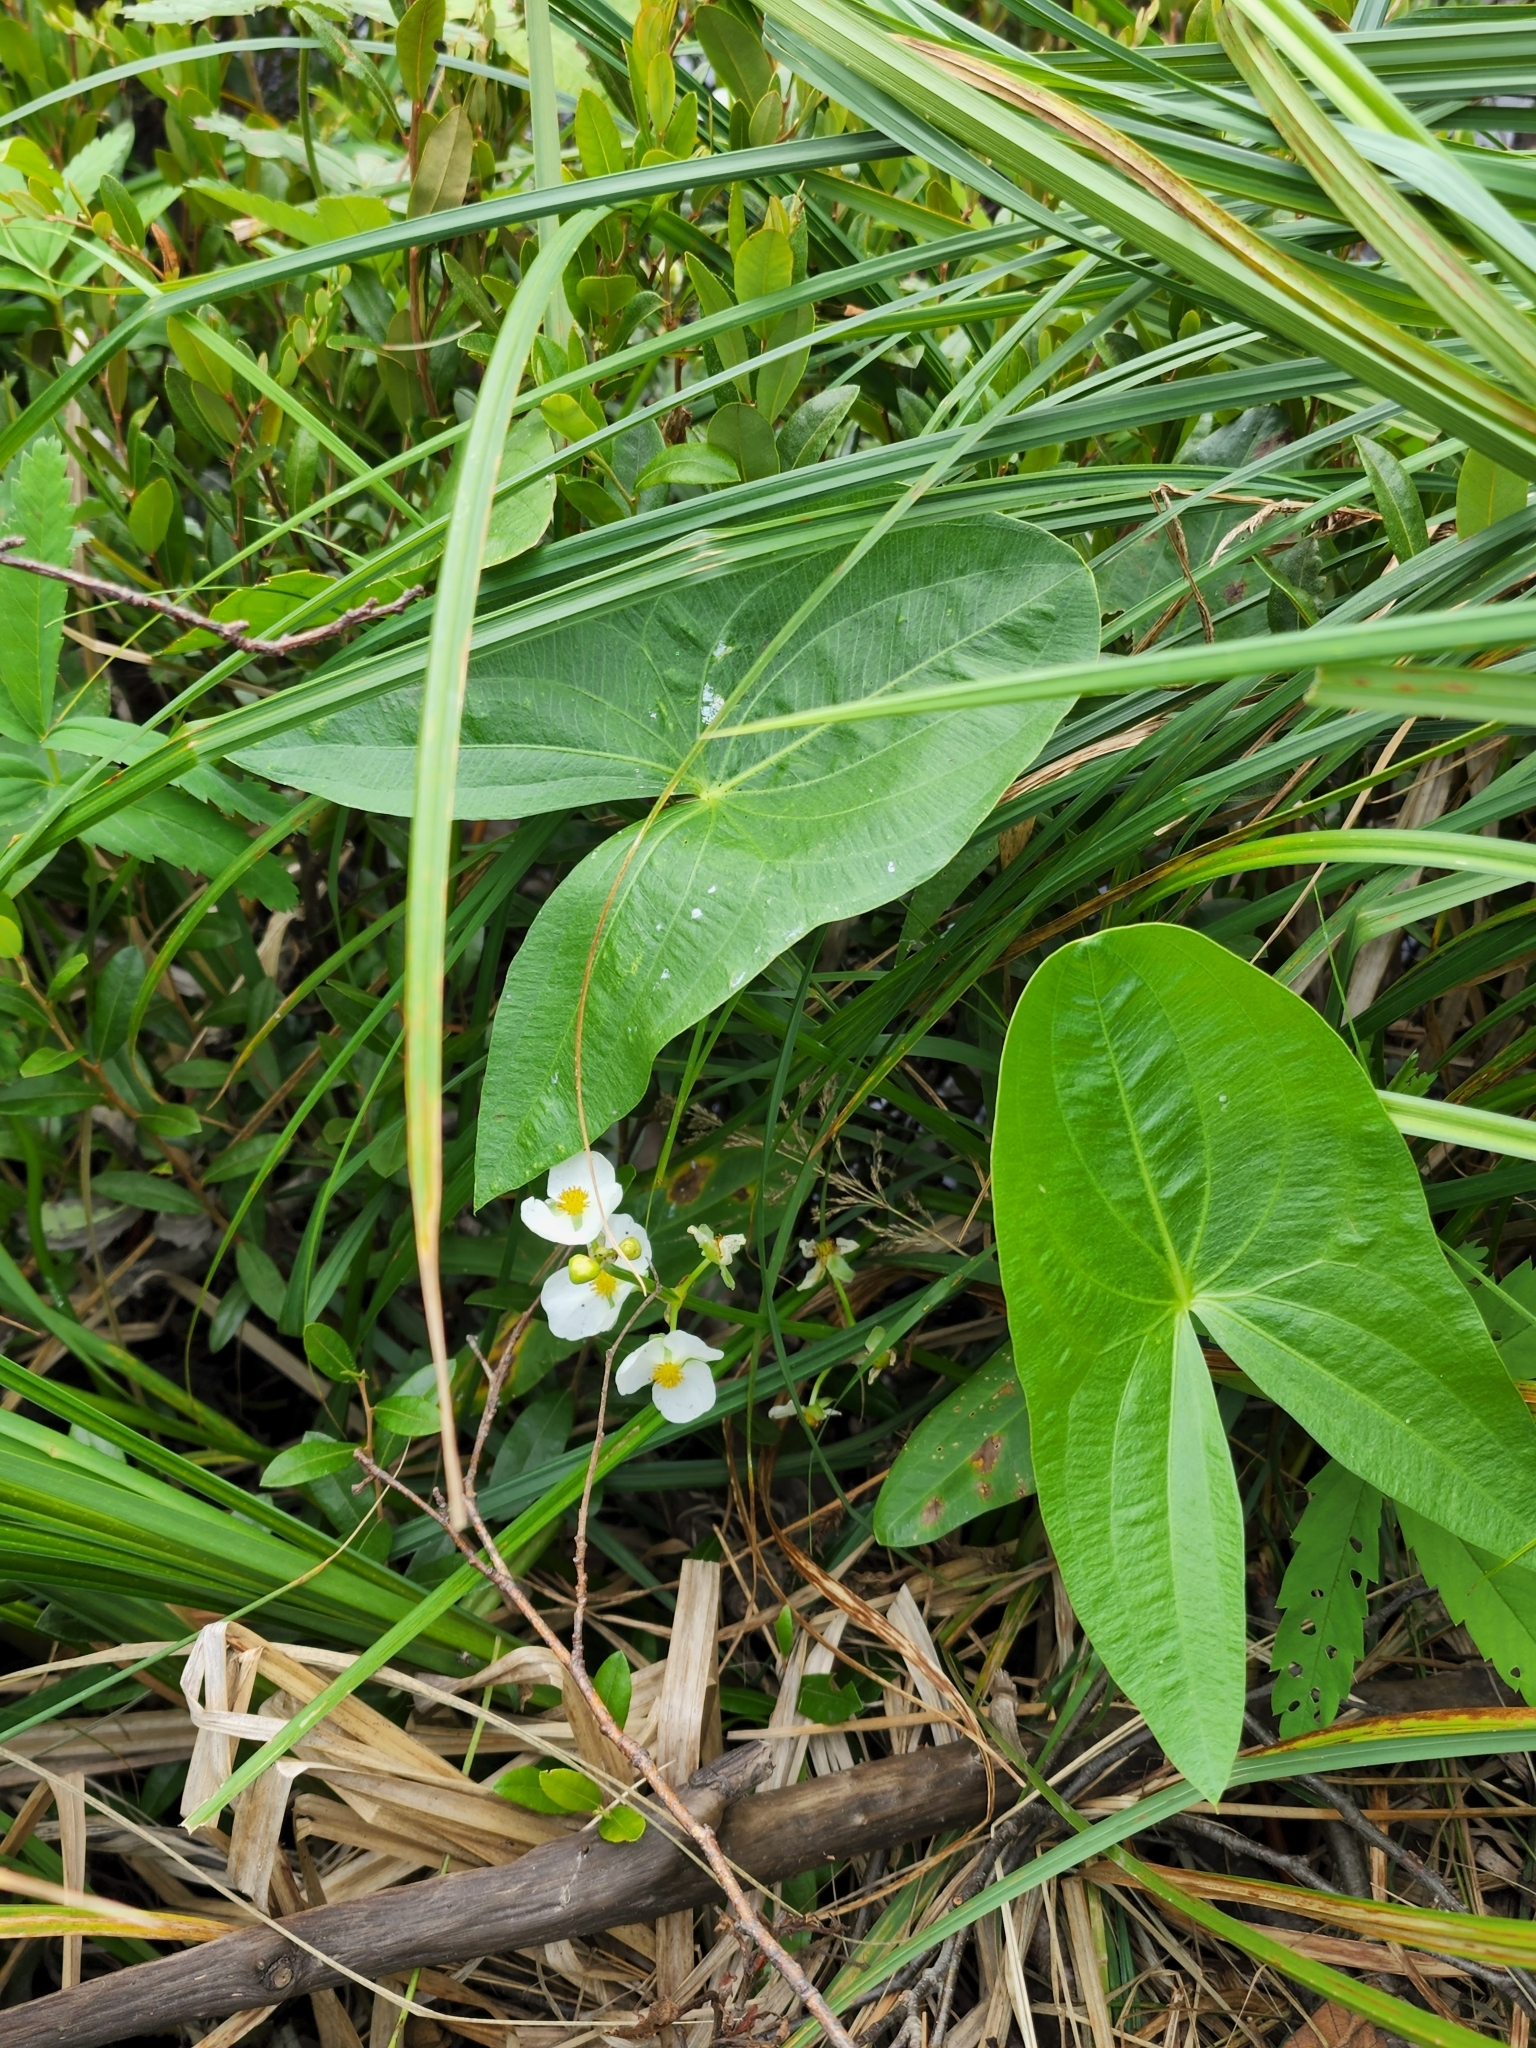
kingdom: Plantae
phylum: Tracheophyta
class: Liliopsida
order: Alismatales
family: Alismataceae
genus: Sagittaria
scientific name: Sagittaria latifolia
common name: Duck-potato
